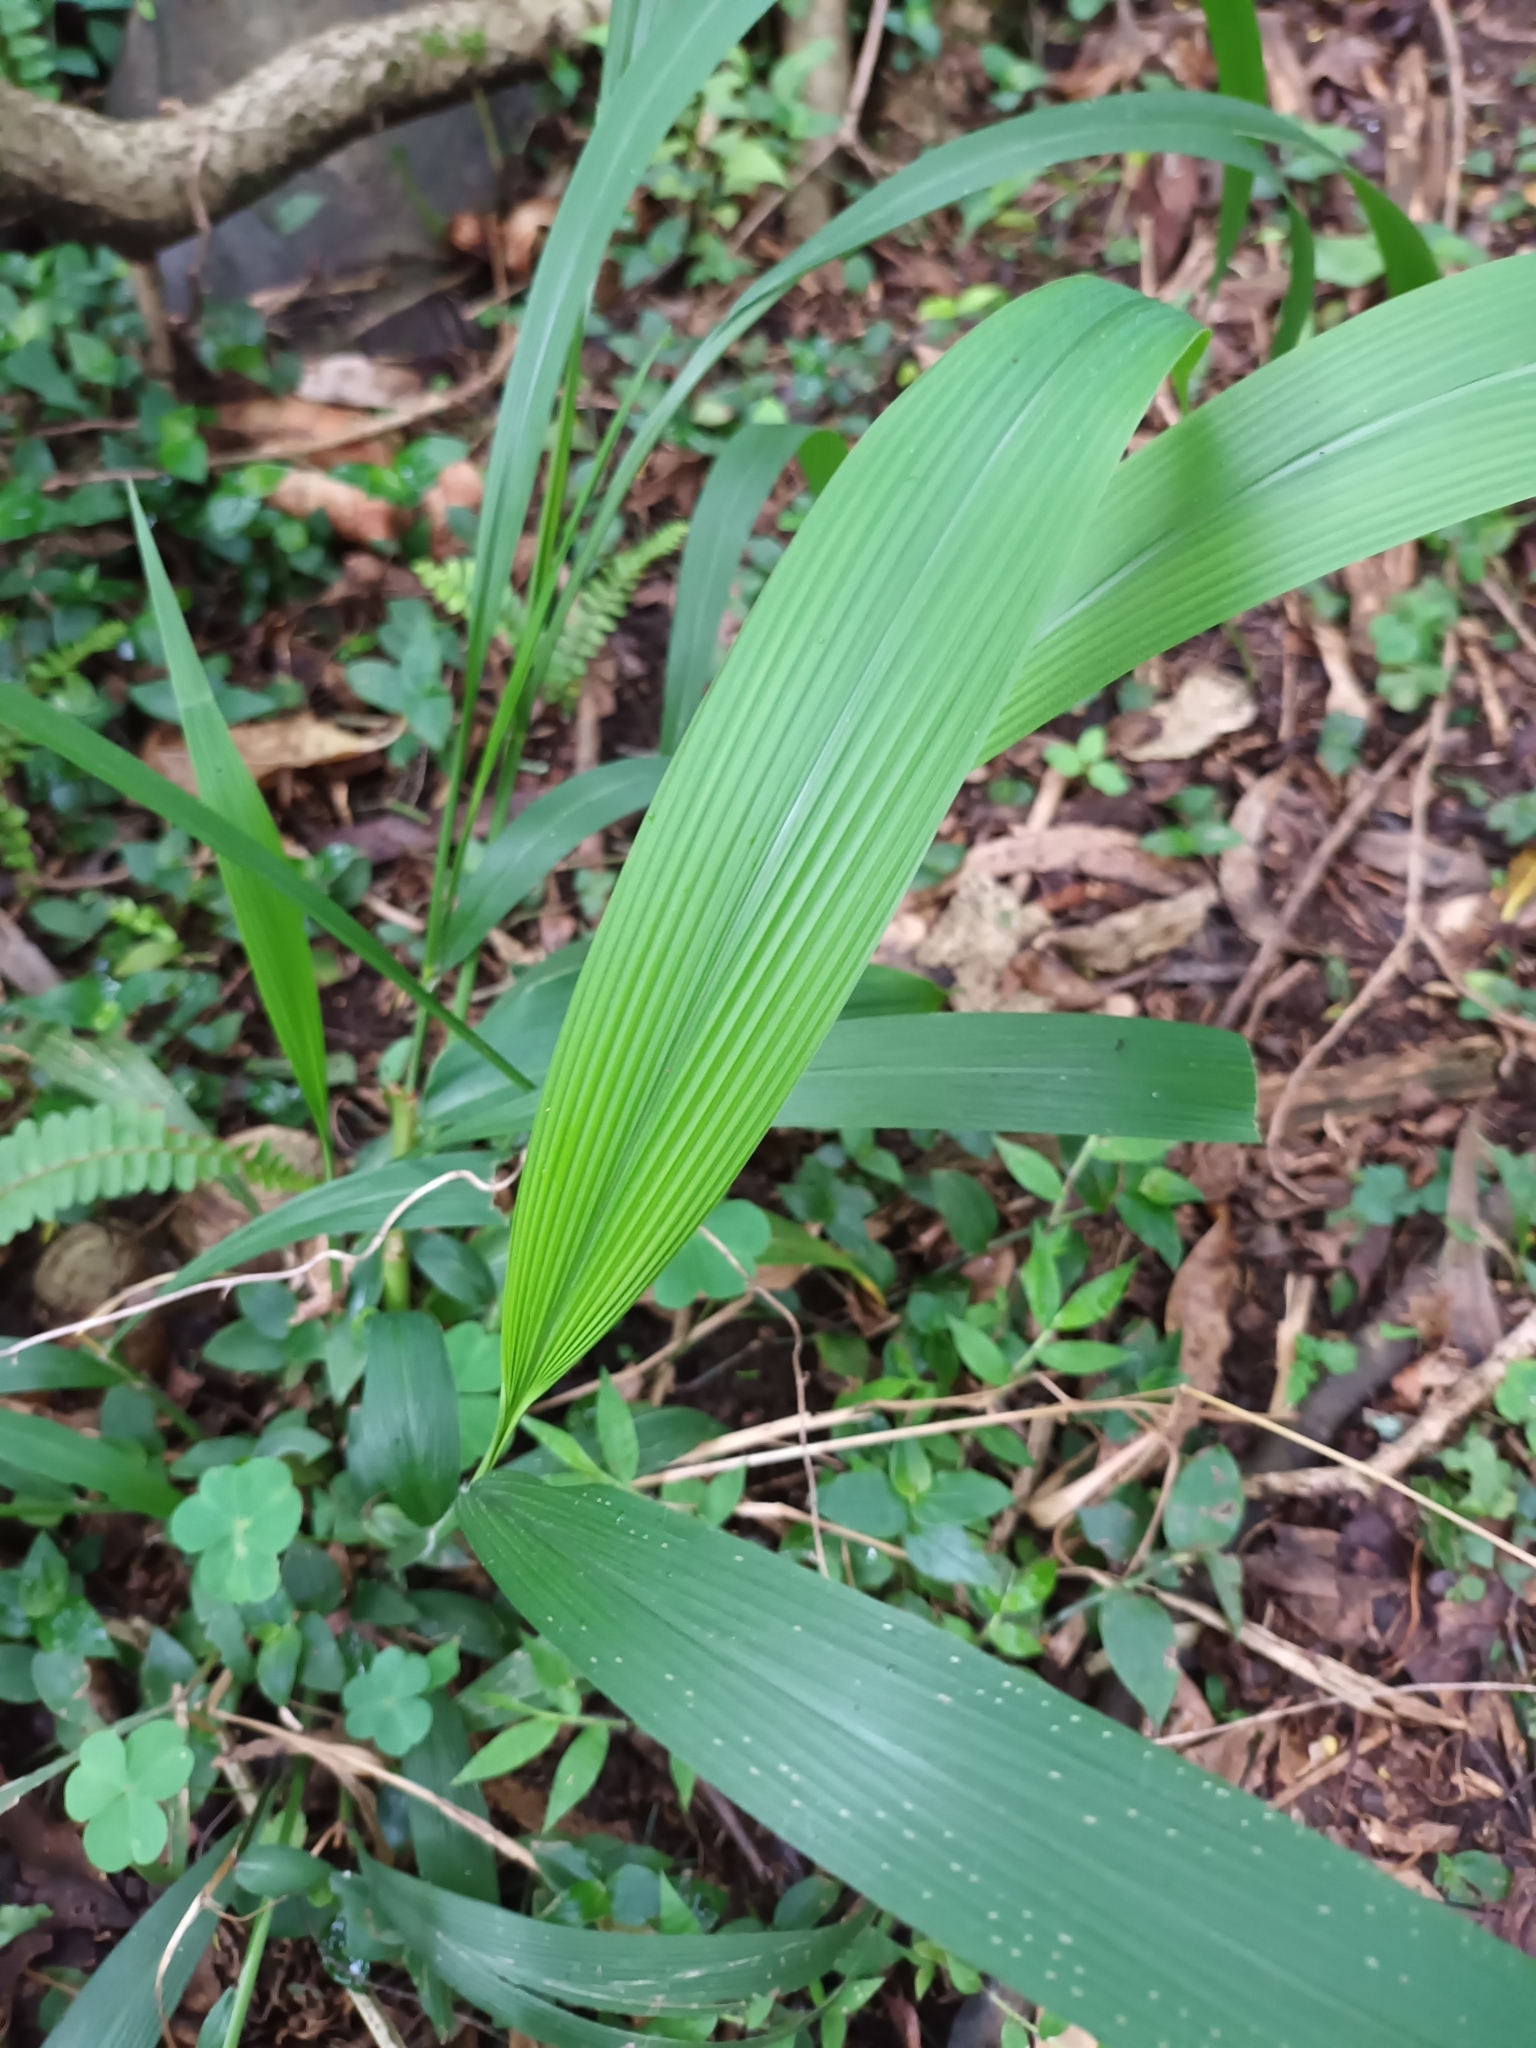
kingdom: Plantae
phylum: Tracheophyta
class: Liliopsida
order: Poales
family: Poaceae
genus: Setaria
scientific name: Setaria megaphylla
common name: Bigleaf bristlegrass
